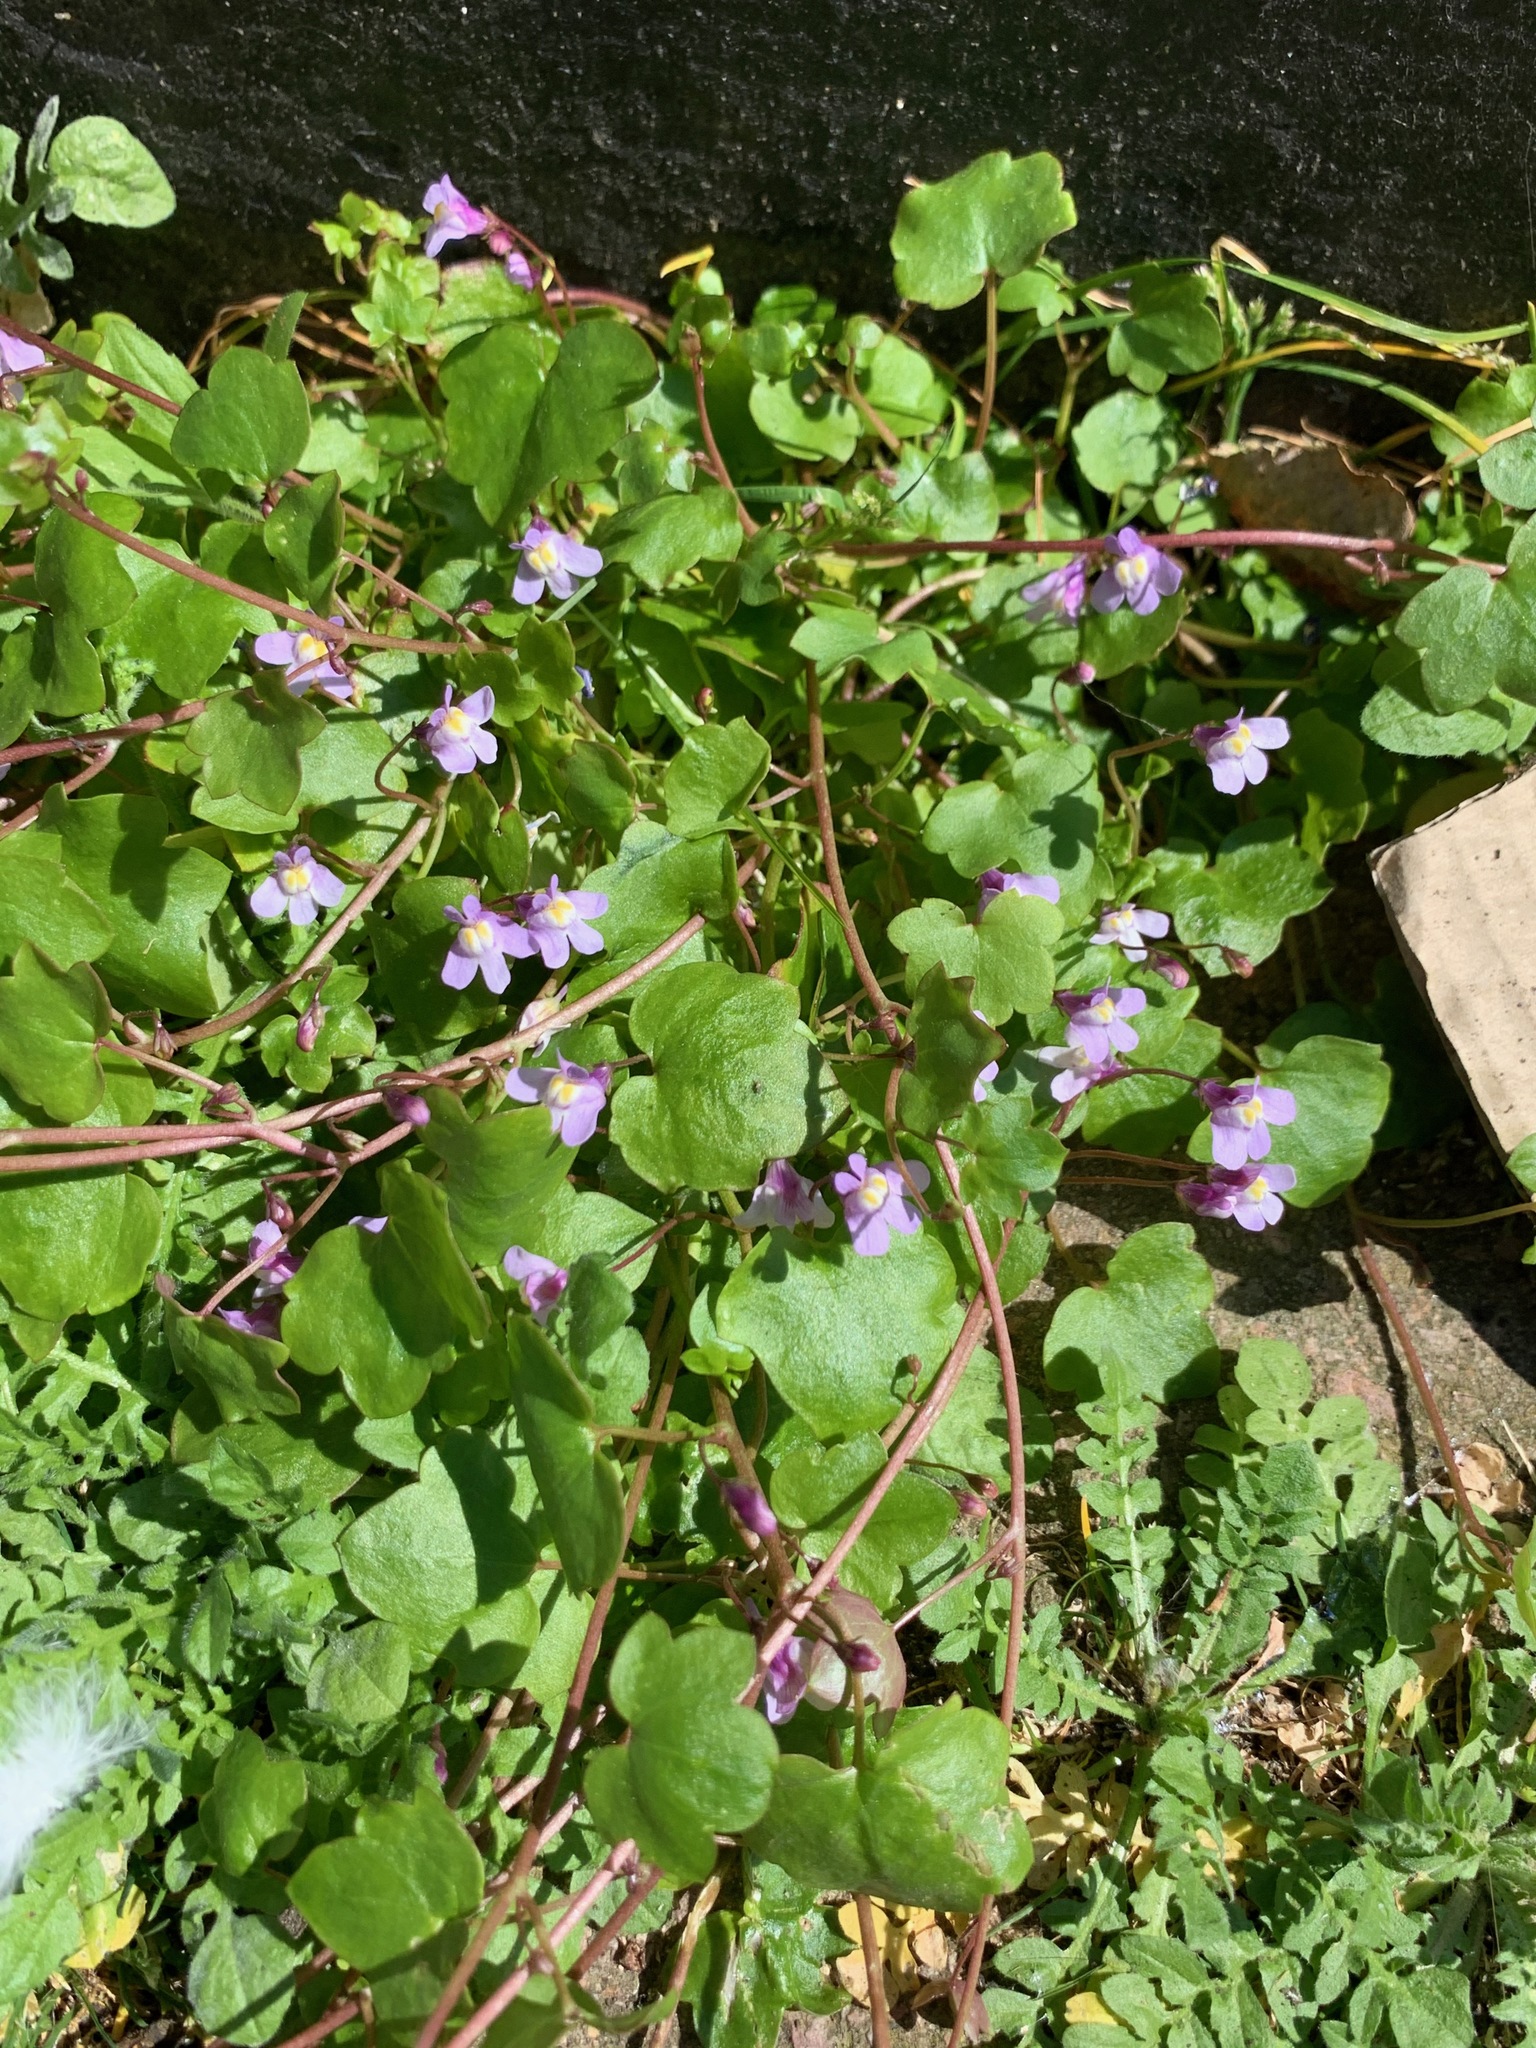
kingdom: Plantae
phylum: Tracheophyta
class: Magnoliopsida
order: Lamiales
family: Plantaginaceae
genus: Cymbalaria
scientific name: Cymbalaria muralis
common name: Ivy-leaved toadflax
